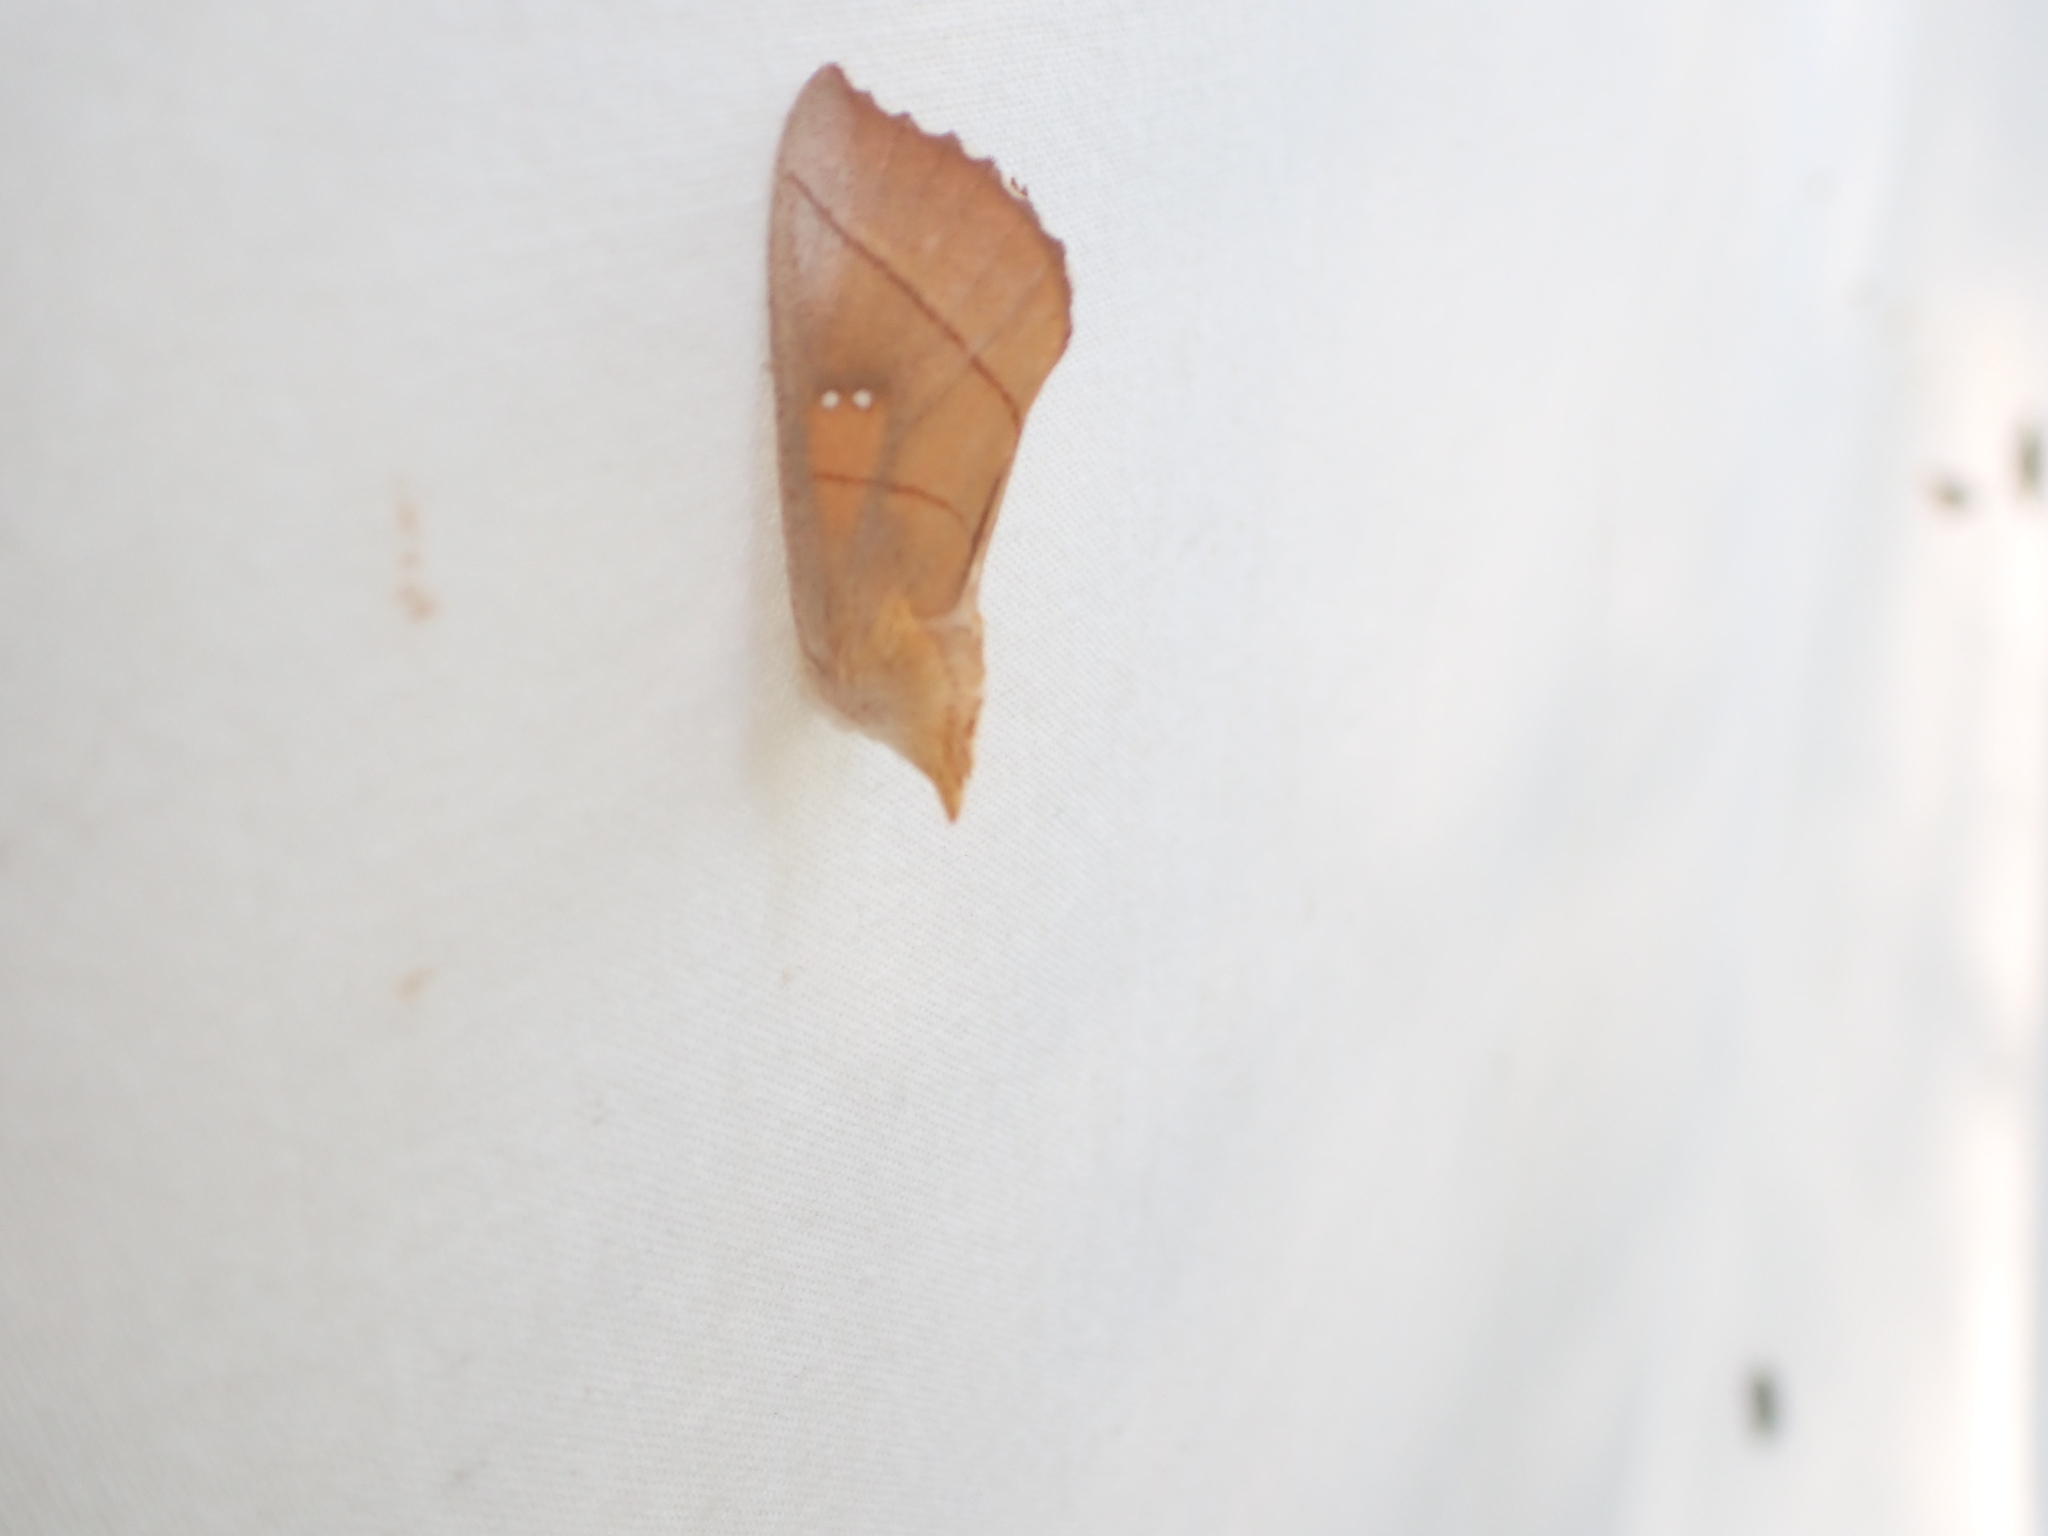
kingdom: Animalia
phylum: Arthropoda
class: Insecta
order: Lepidoptera
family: Notodontidae
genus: Nadata
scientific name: Nadata gibbosa
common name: White-dotted prominent
